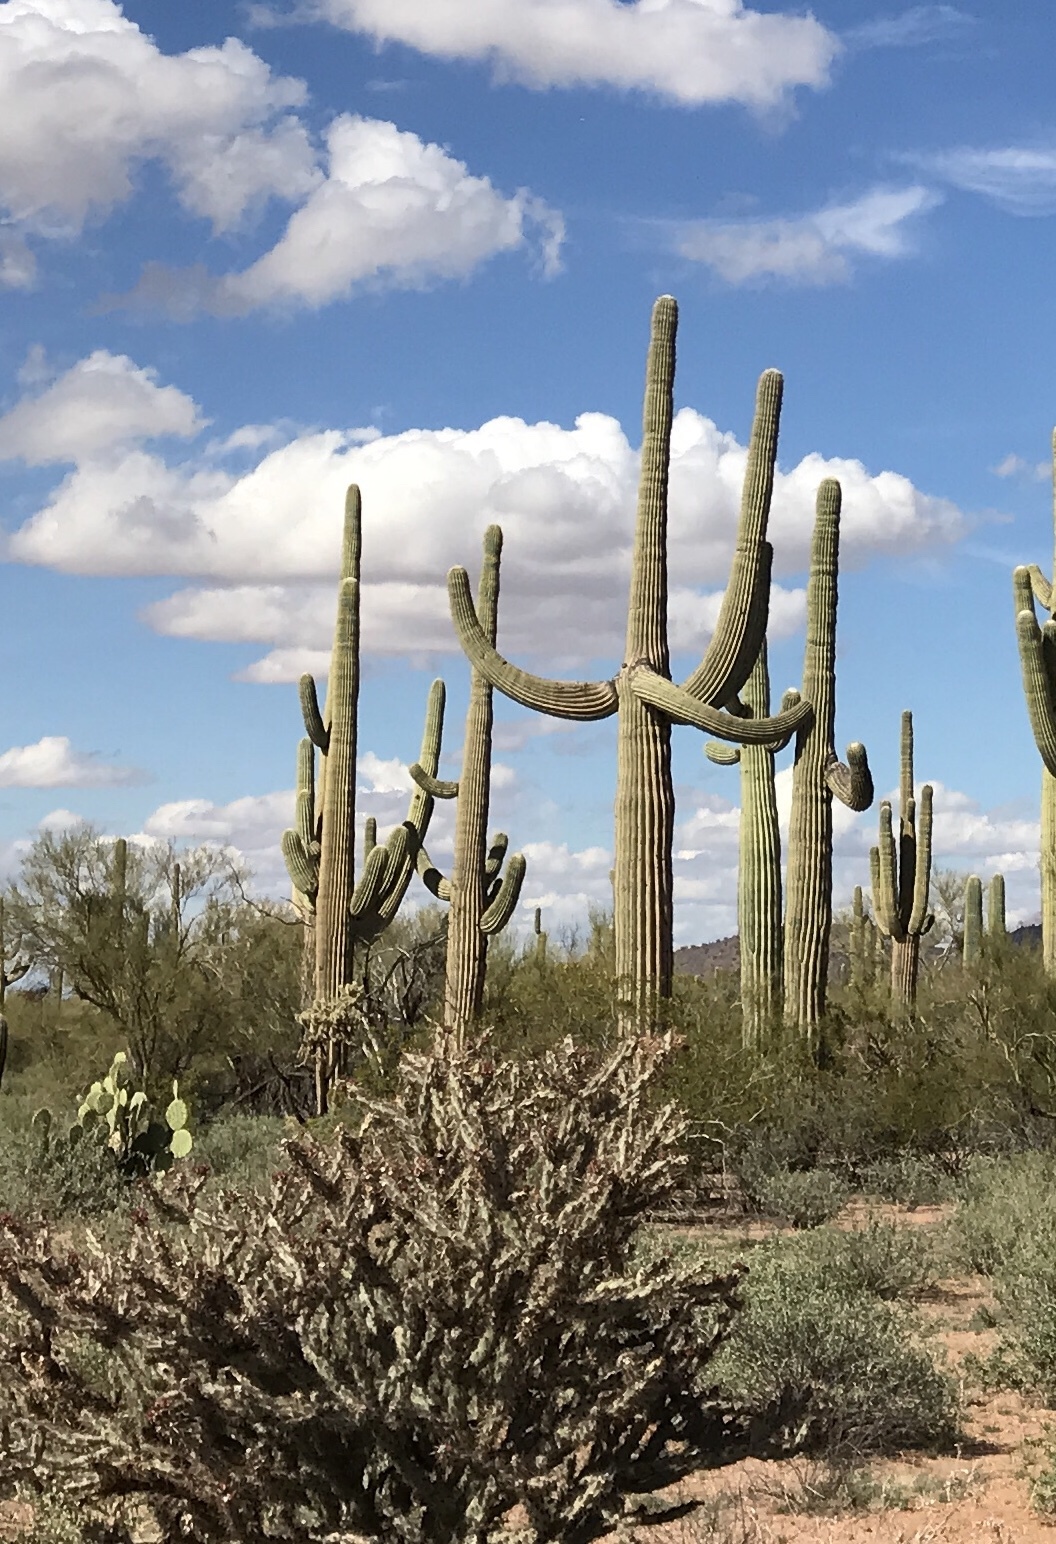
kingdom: Plantae
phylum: Tracheophyta
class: Magnoliopsida
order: Caryophyllales
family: Cactaceae
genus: Carnegiea
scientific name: Carnegiea gigantea
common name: Saguaro
